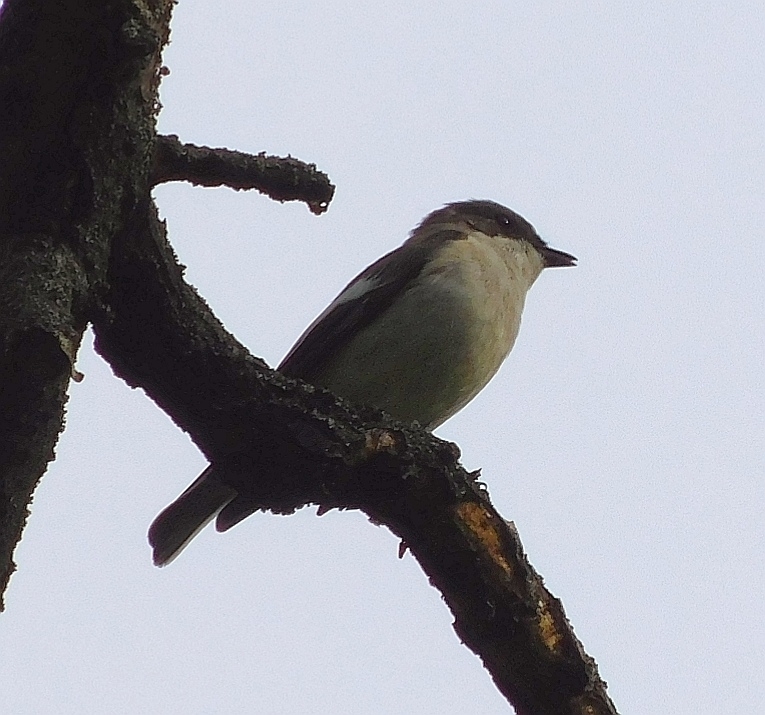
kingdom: Animalia
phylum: Chordata
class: Aves
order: Passeriformes
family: Muscicapidae
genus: Ficedula
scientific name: Ficedula hypoleuca
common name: European pied flycatcher
